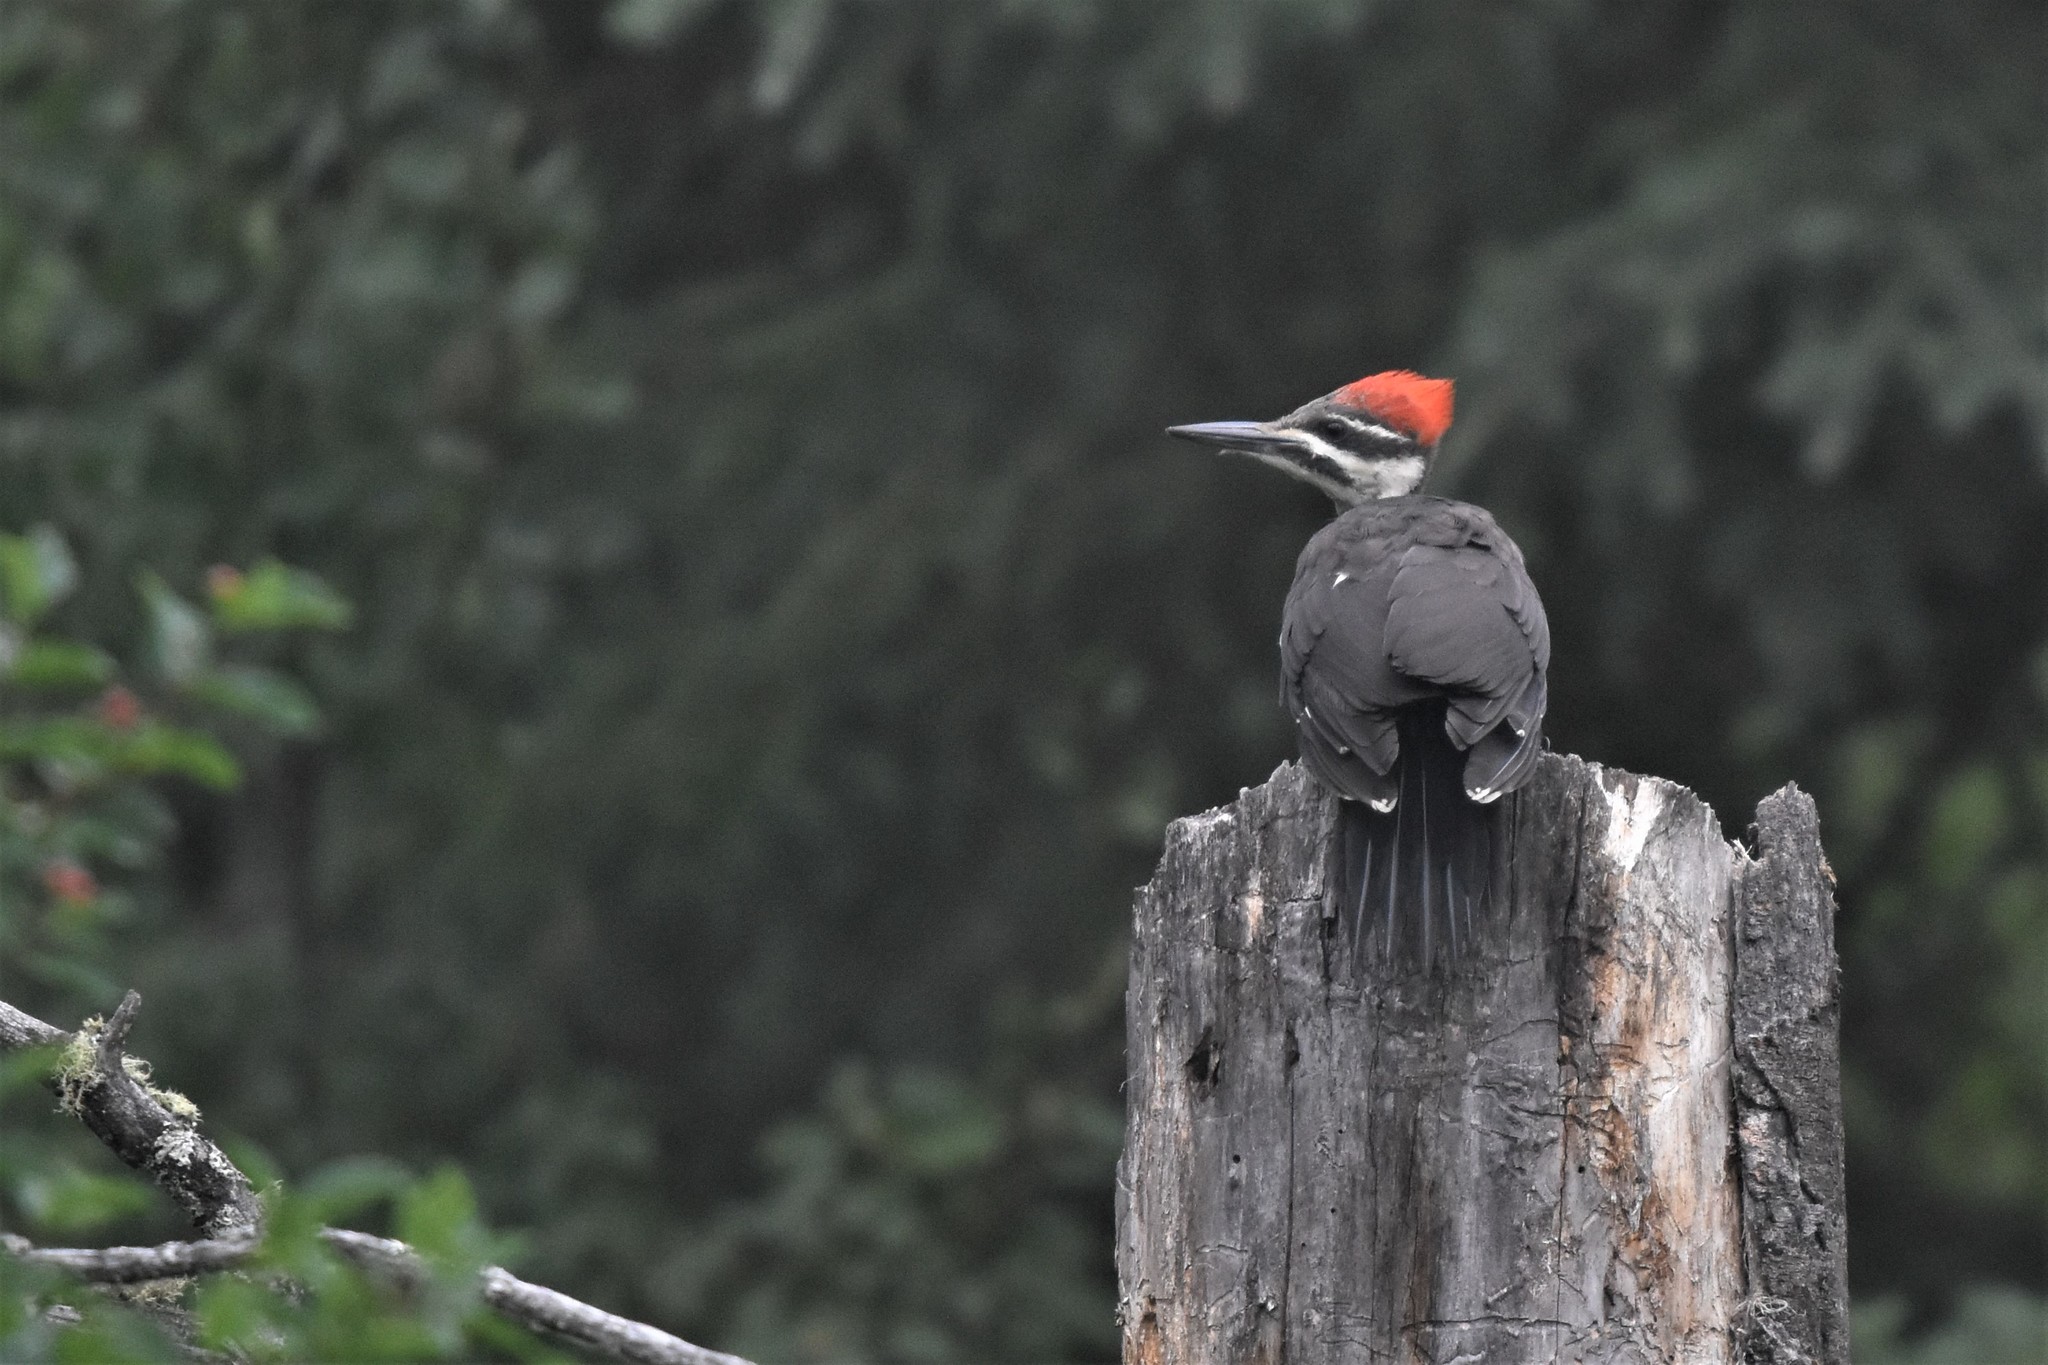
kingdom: Animalia
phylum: Chordata
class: Aves
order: Piciformes
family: Picidae
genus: Dryocopus
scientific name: Dryocopus pileatus
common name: Pileated woodpecker
